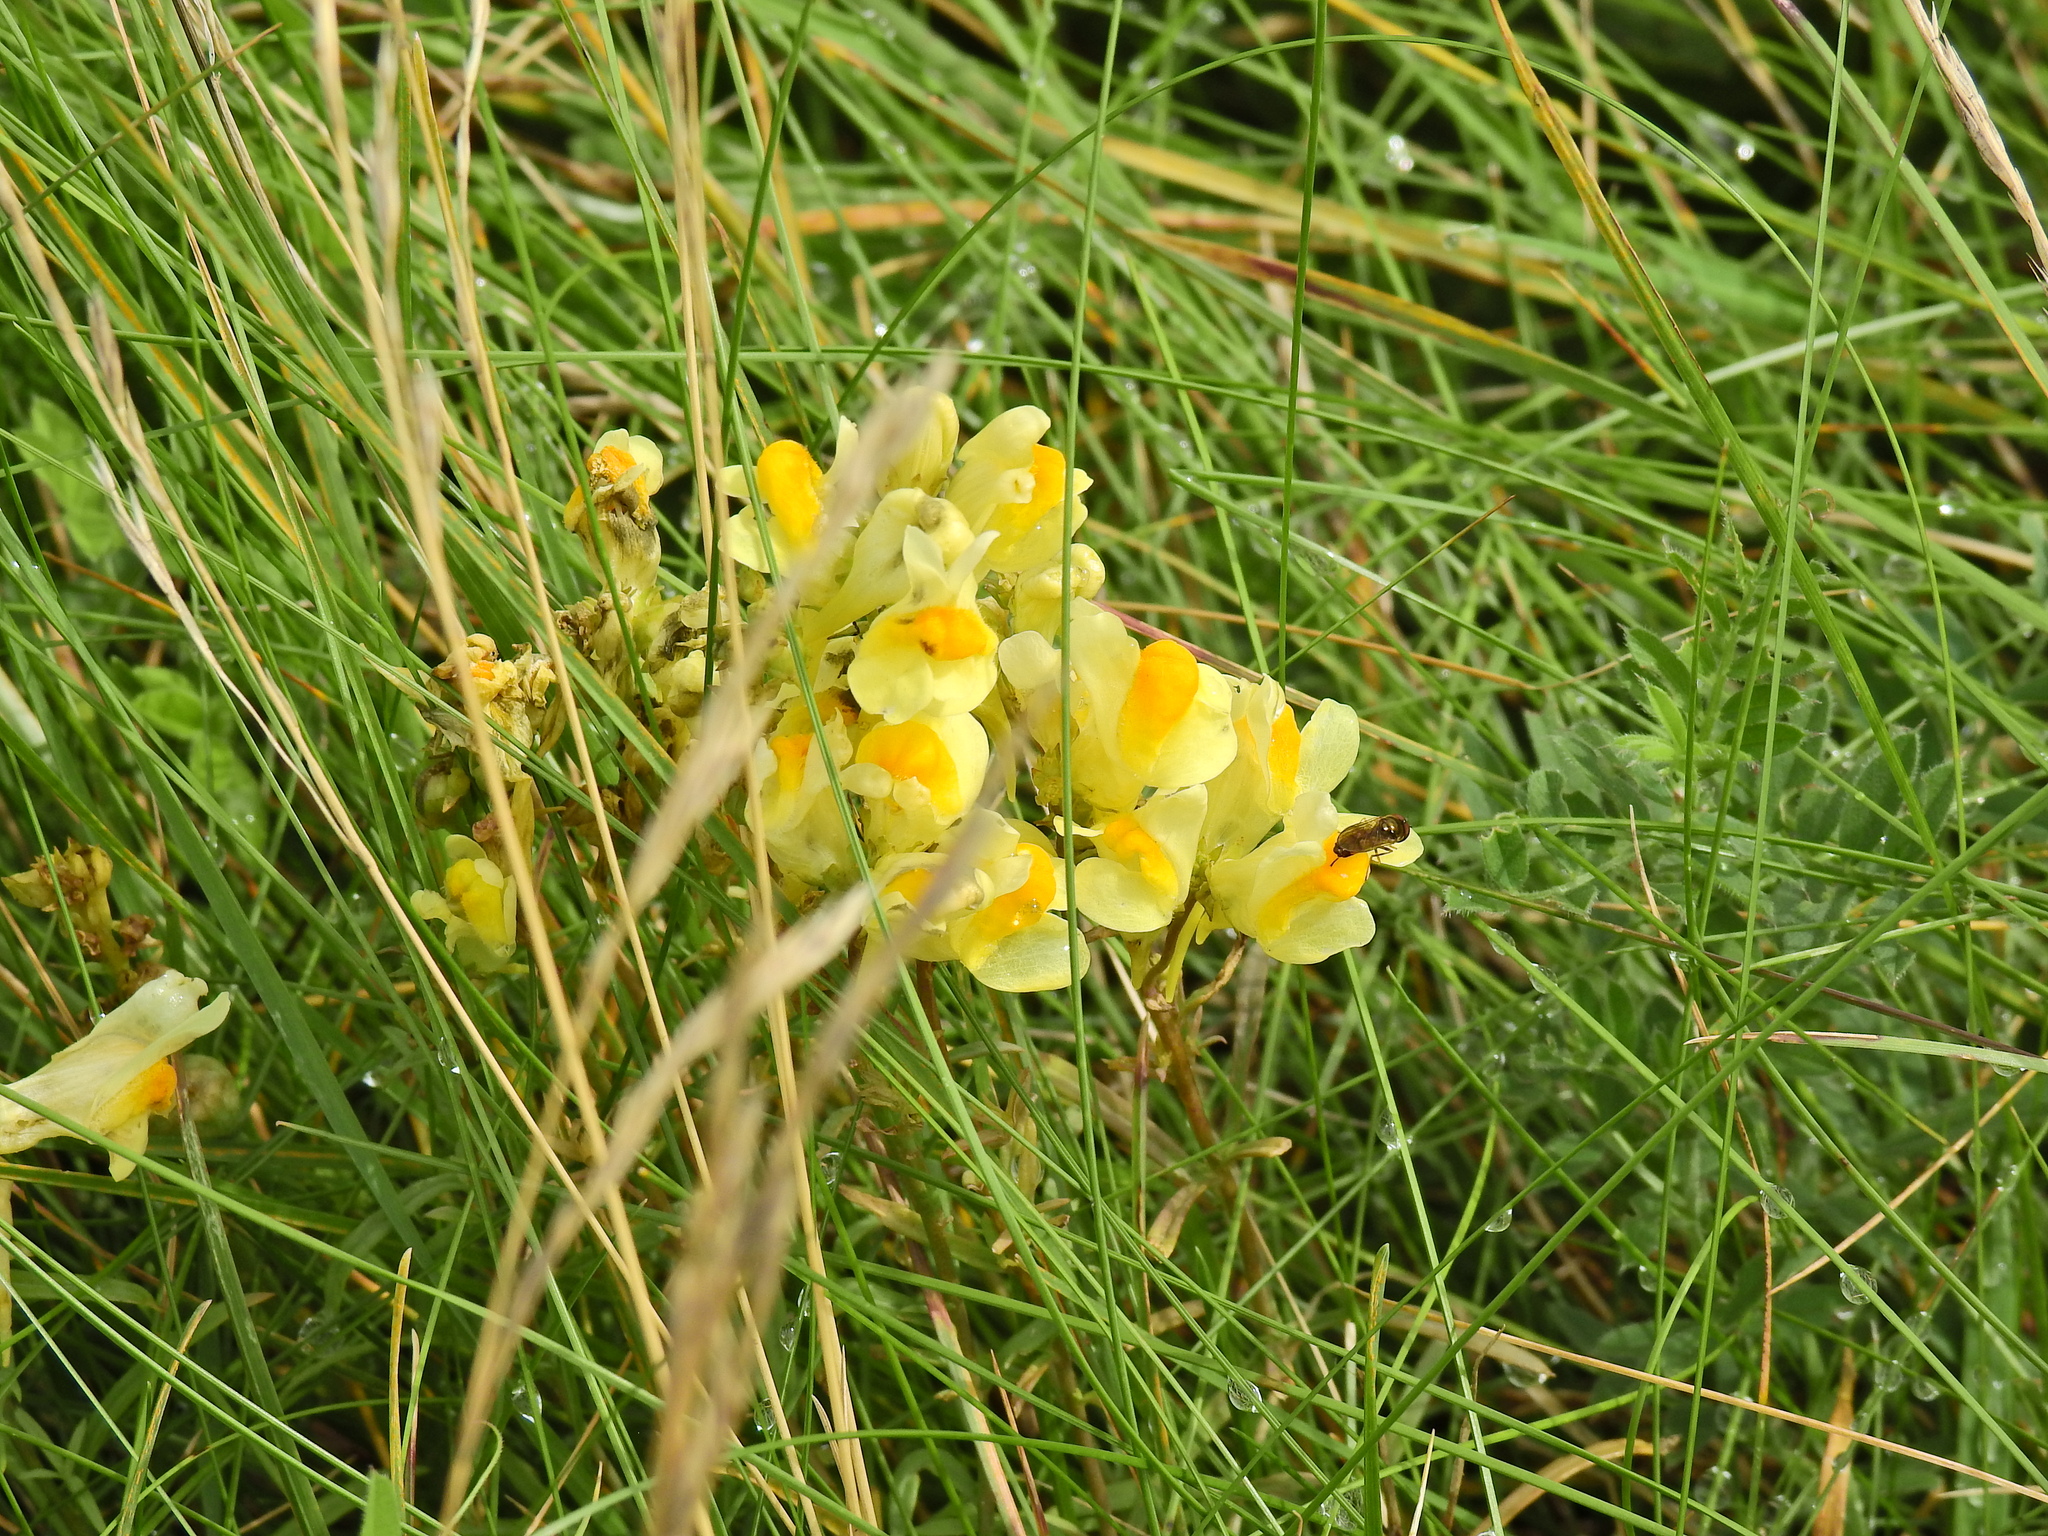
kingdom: Plantae
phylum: Tracheophyta
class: Magnoliopsida
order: Lamiales
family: Plantaginaceae
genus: Linaria
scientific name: Linaria vulgaris
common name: Butter and eggs
